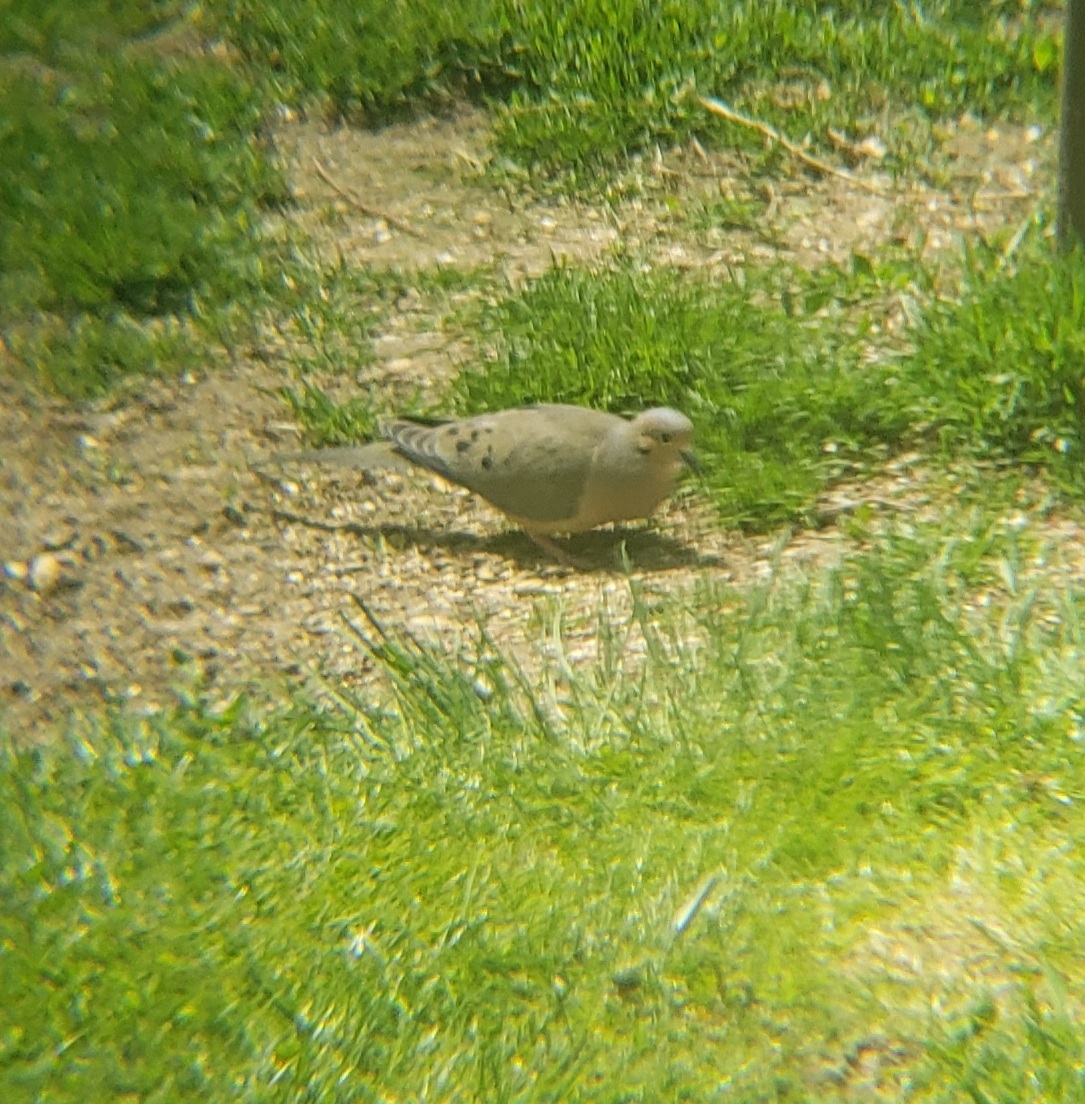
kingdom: Animalia
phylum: Chordata
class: Aves
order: Columbiformes
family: Columbidae
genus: Zenaida
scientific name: Zenaida macroura
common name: Mourning dove
